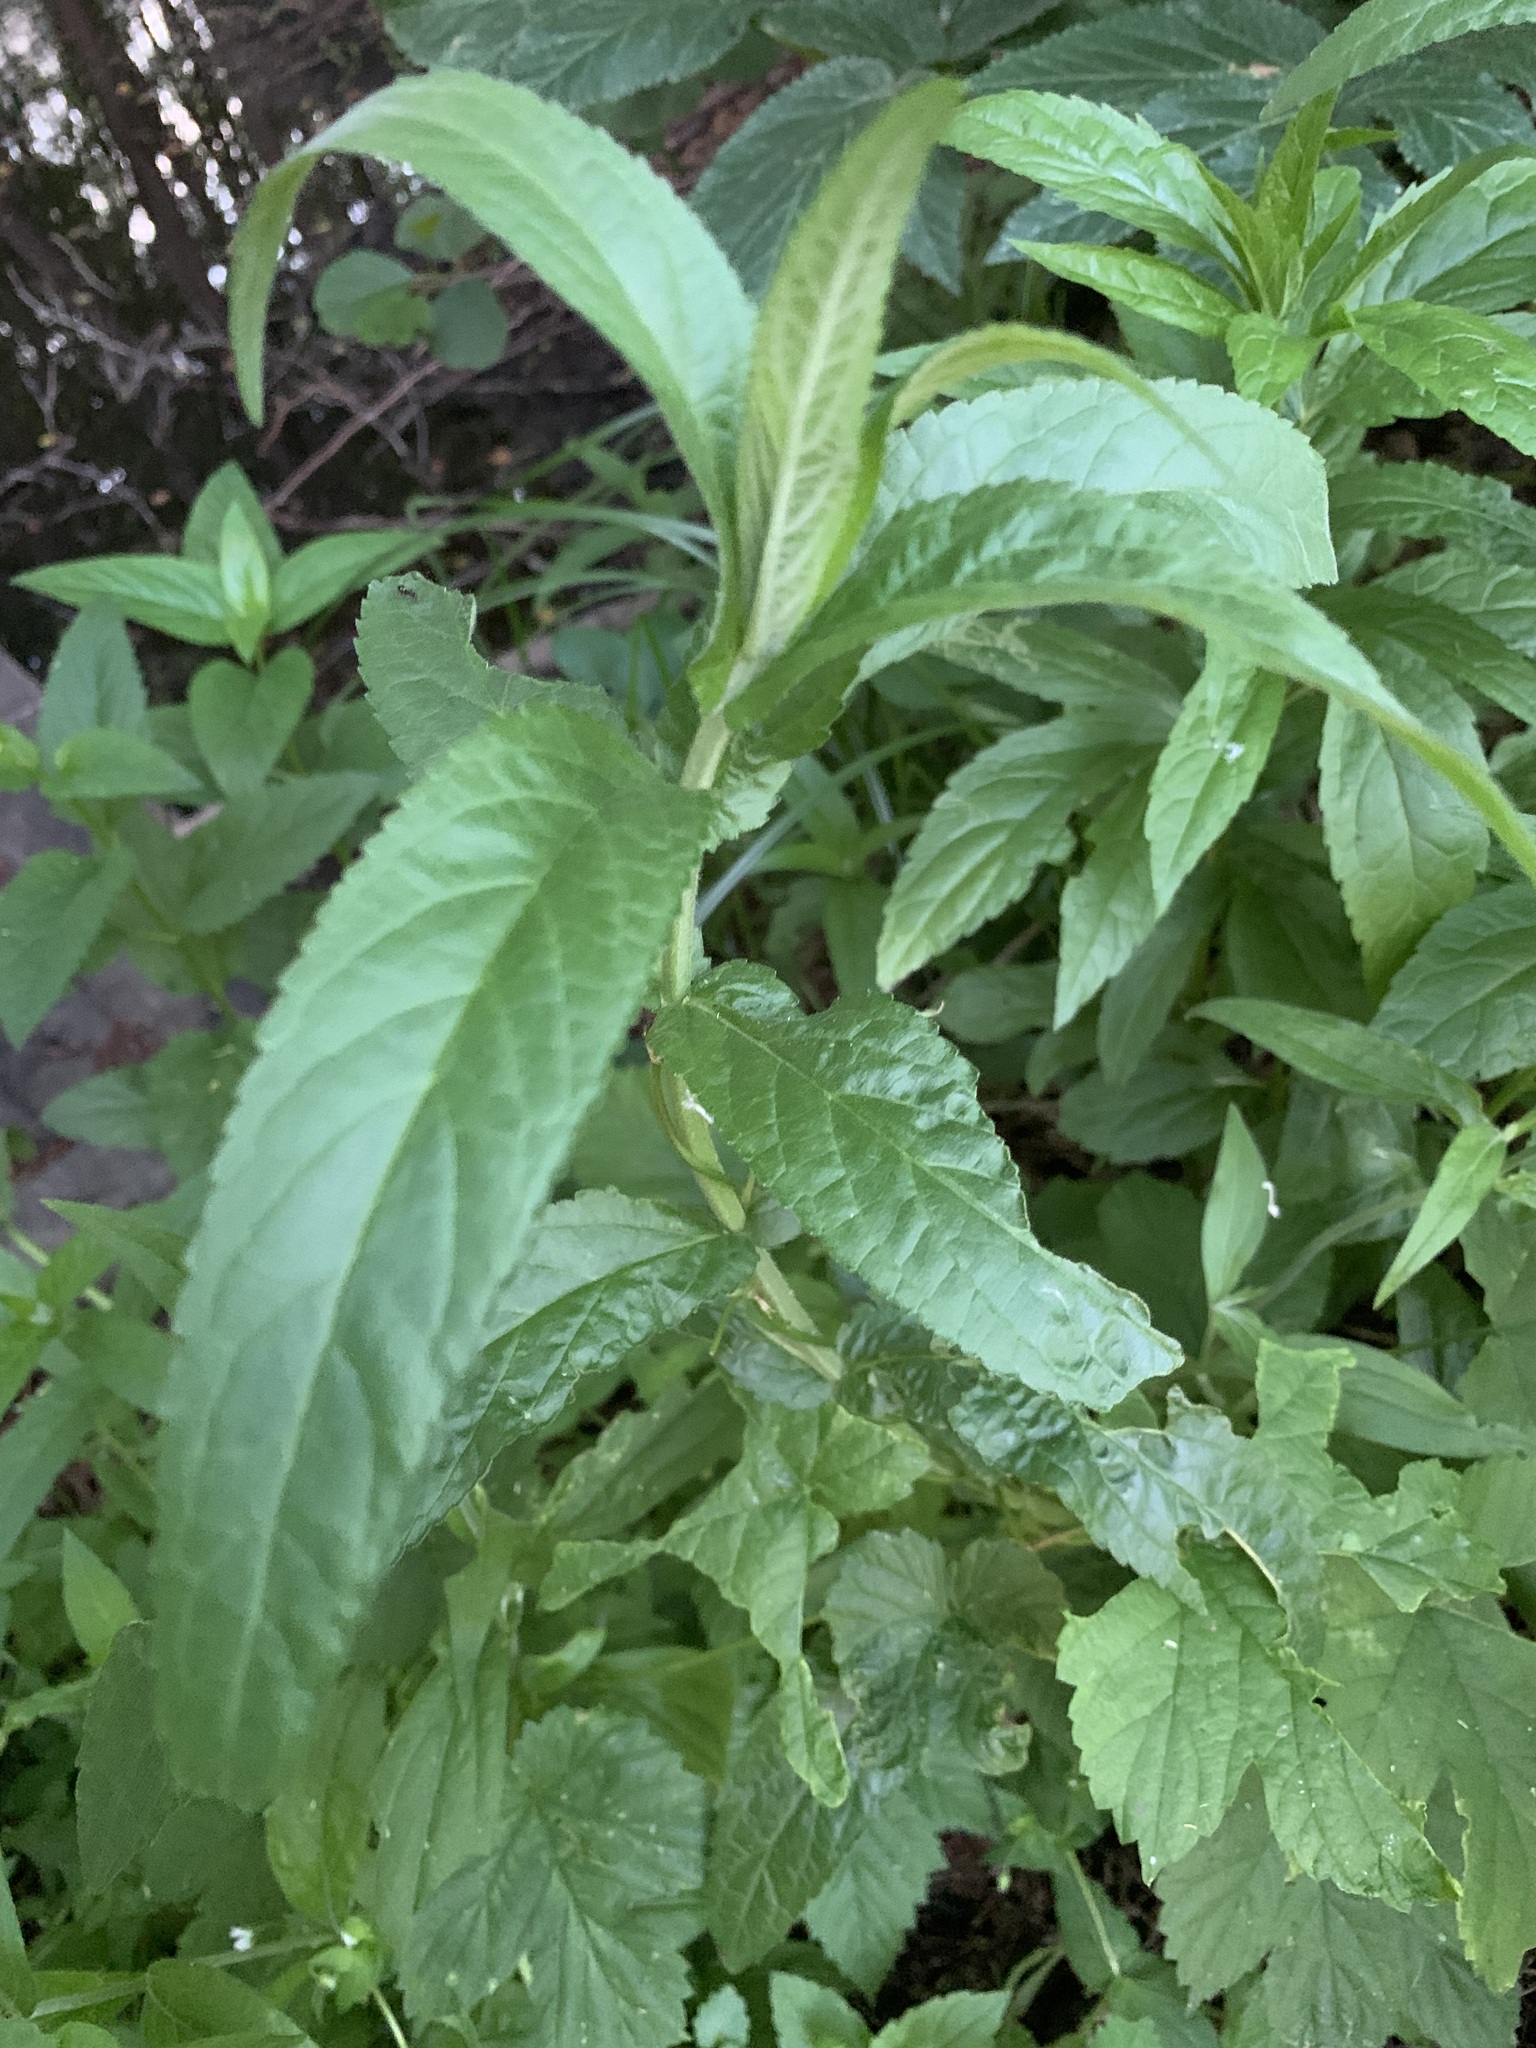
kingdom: Plantae
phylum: Tracheophyta
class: Magnoliopsida
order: Lamiales
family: Lamiaceae
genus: Stachys
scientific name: Stachys palustris
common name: Marsh woundwort
